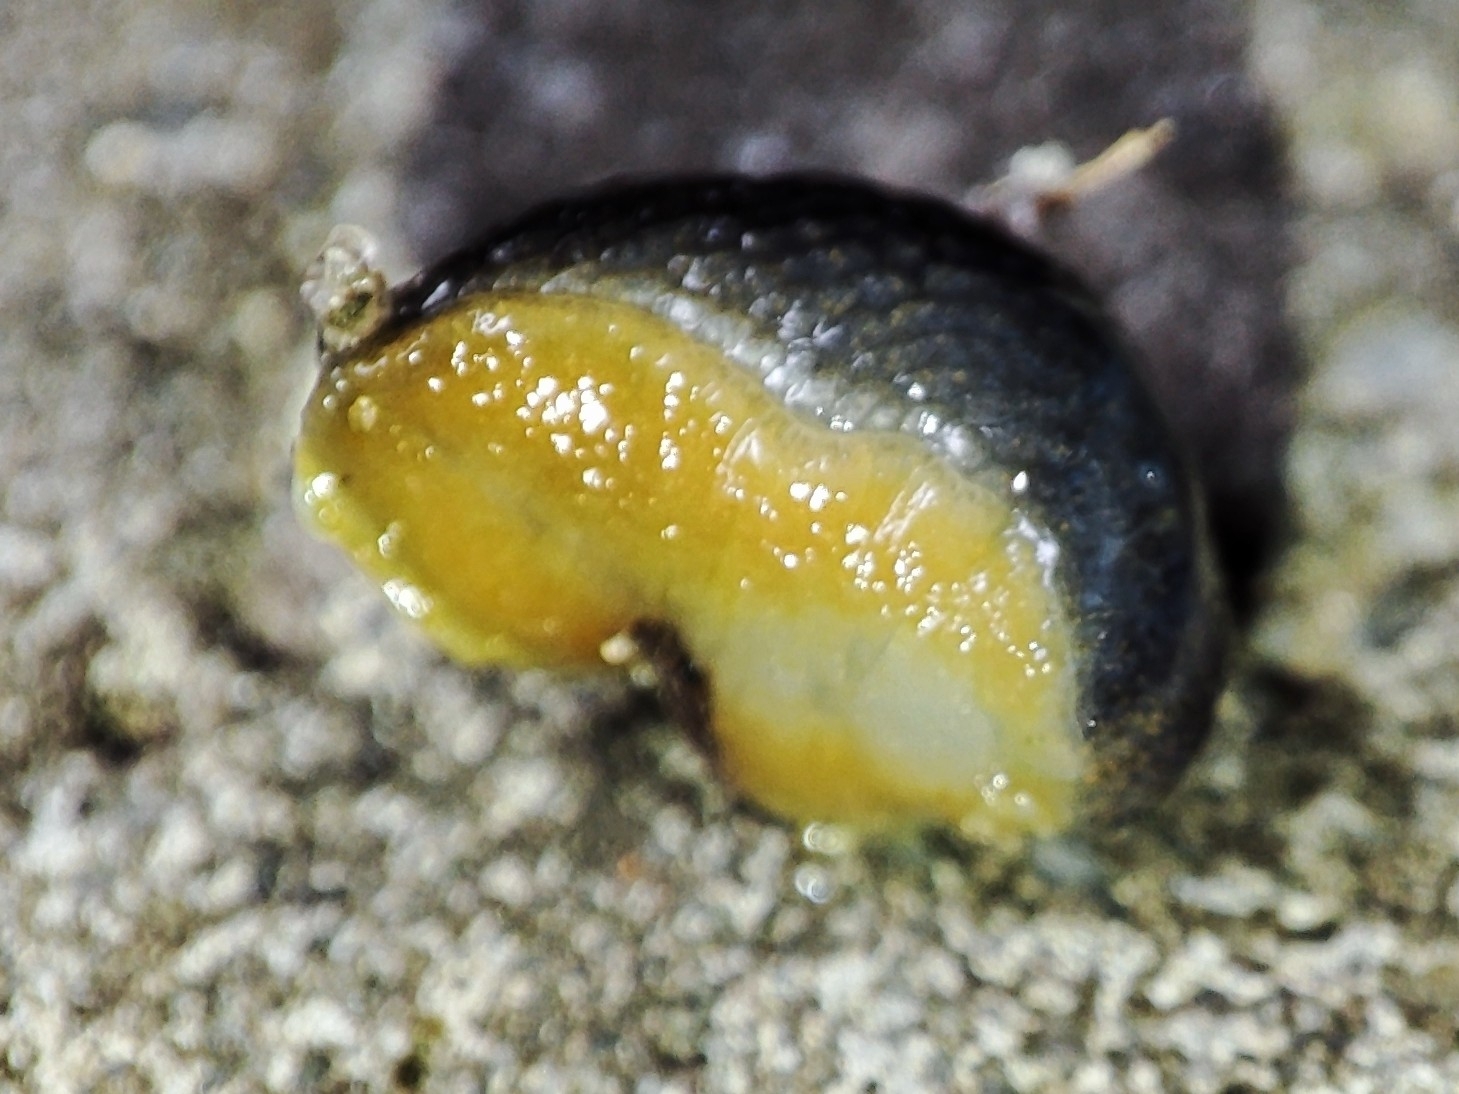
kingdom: Animalia
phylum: Mollusca
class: Gastropoda
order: Stylommatophora
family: Arionidae
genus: Arion
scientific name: Arion distinctus
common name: Darkface arion
